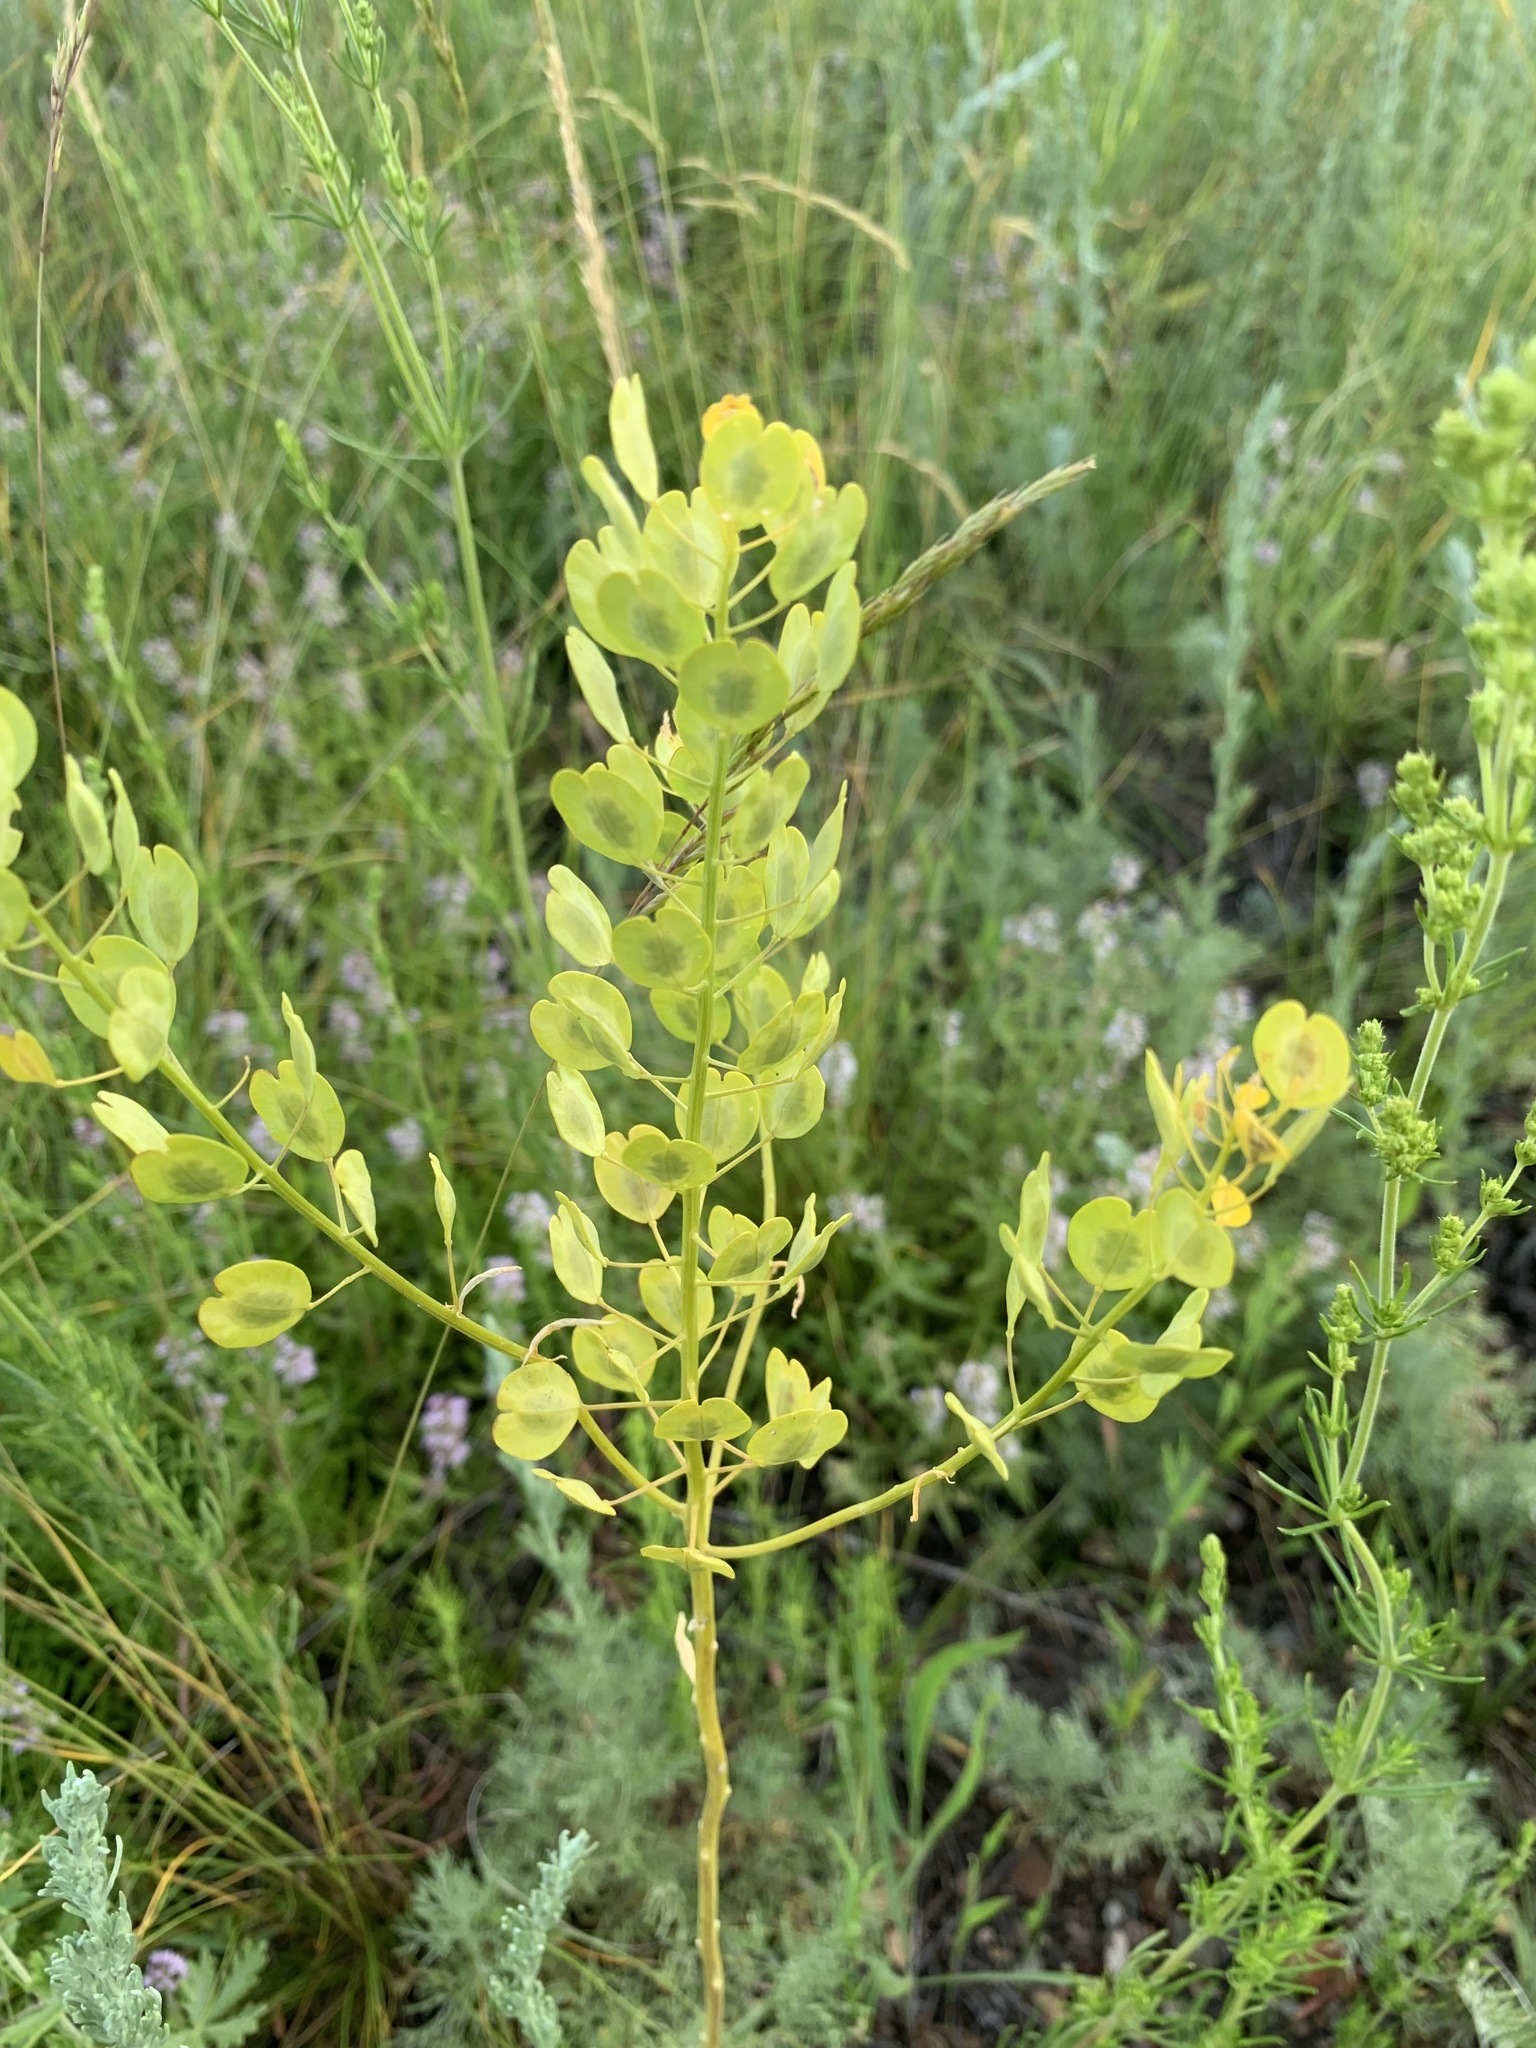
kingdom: Plantae
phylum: Tracheophyta
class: Magnoliopsida
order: Brassicales
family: Brassicaceae
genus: Thlaspi
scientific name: Thlaspi arvense
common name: Field pennycress
